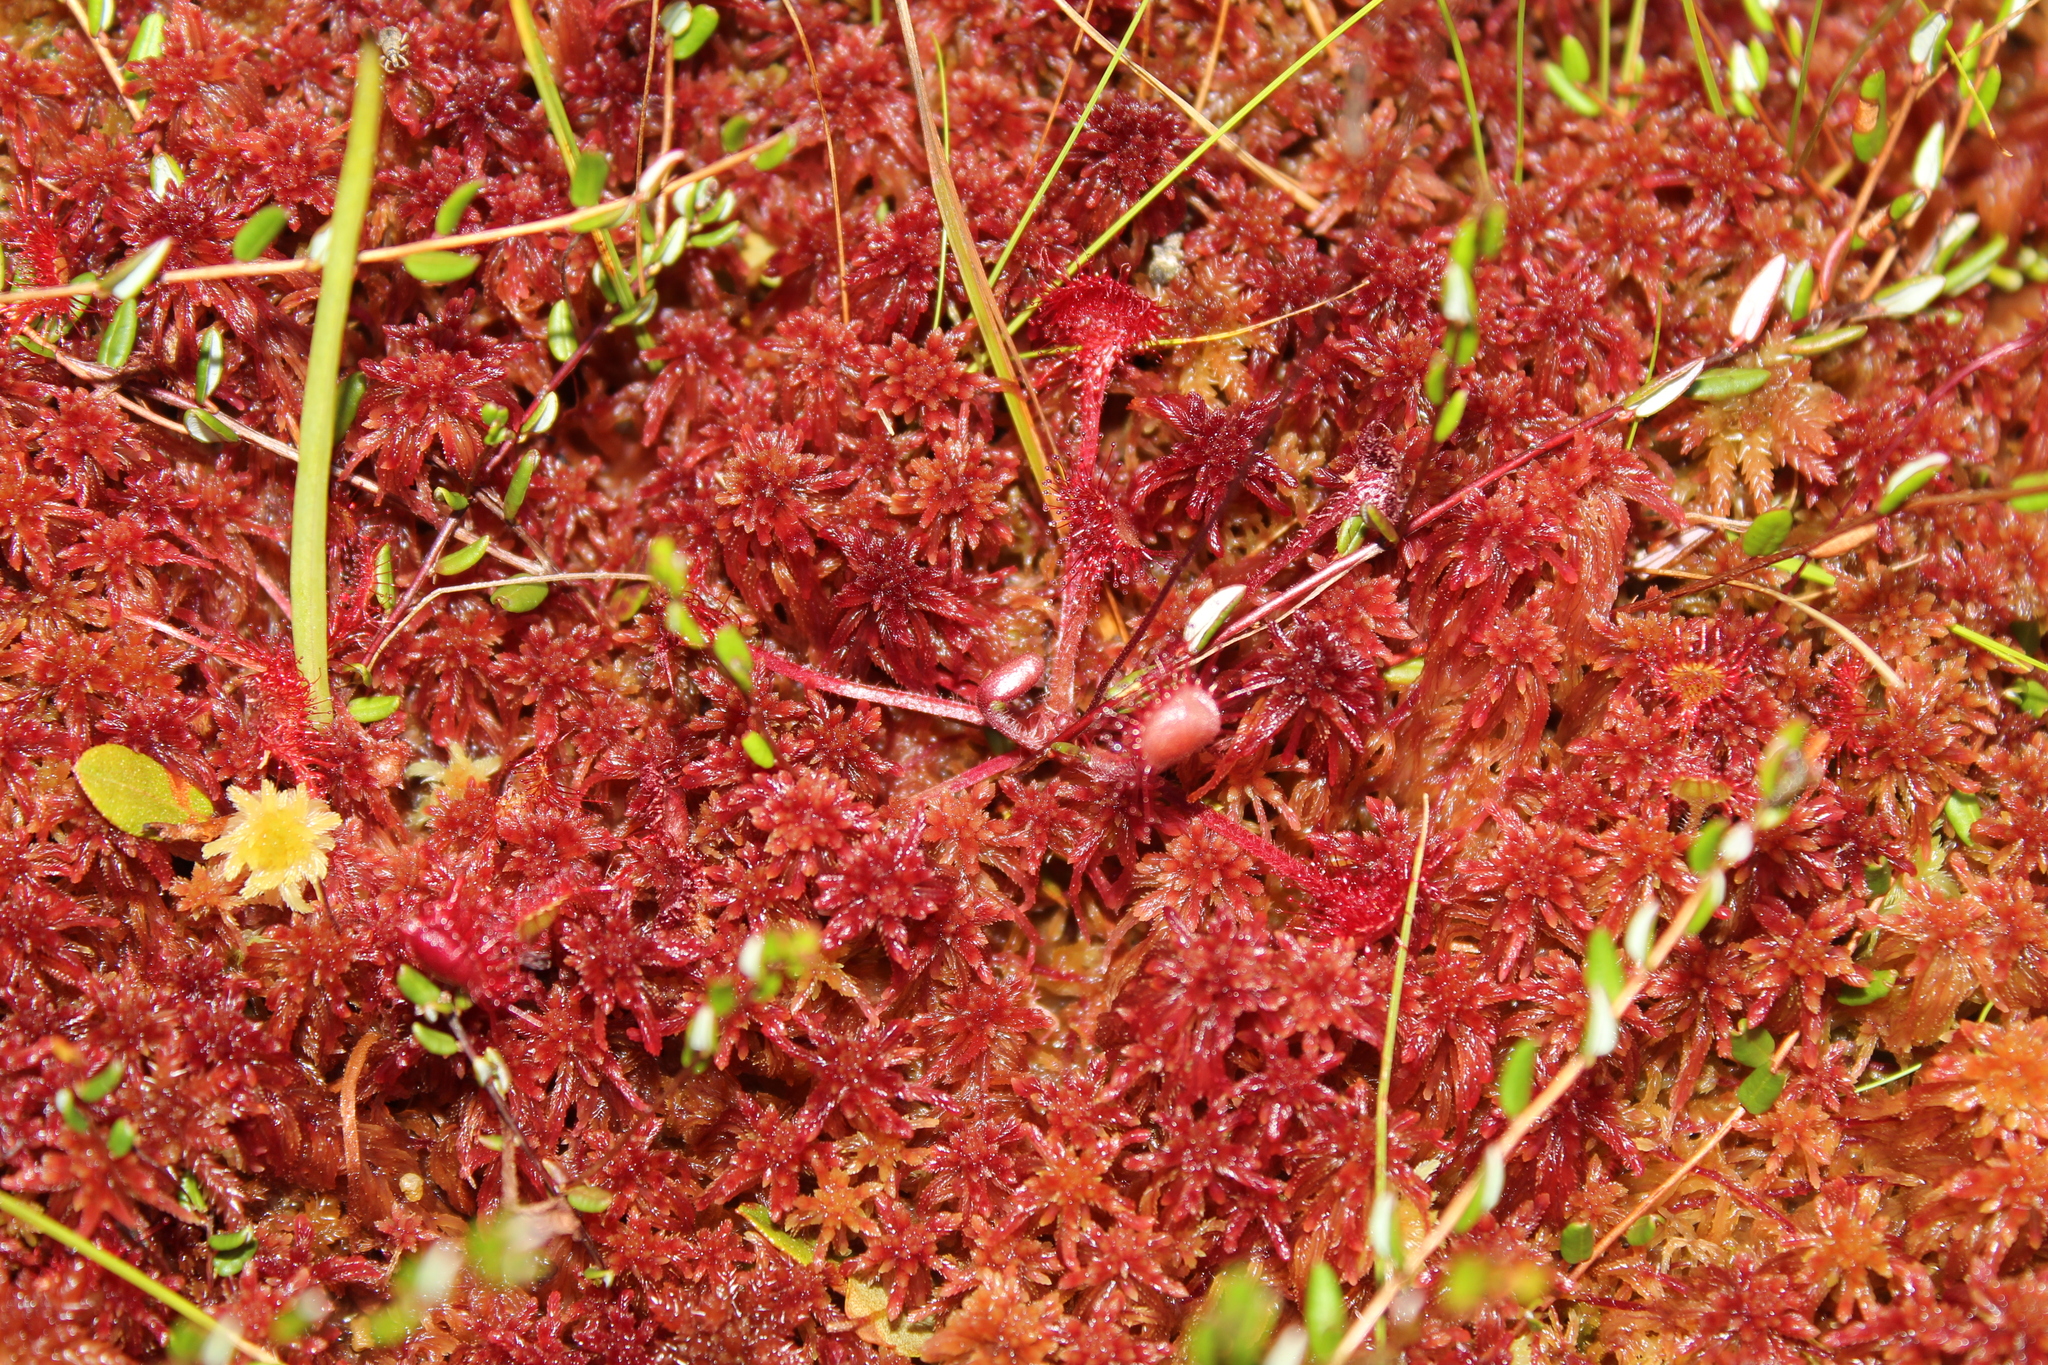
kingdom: Plantae
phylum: Tracheophyta
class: Magnoliopsida
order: Caryophyllales
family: Droseraceae
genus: Drosera
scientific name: Drosera rotundifolia
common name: Round-leaved sundew
